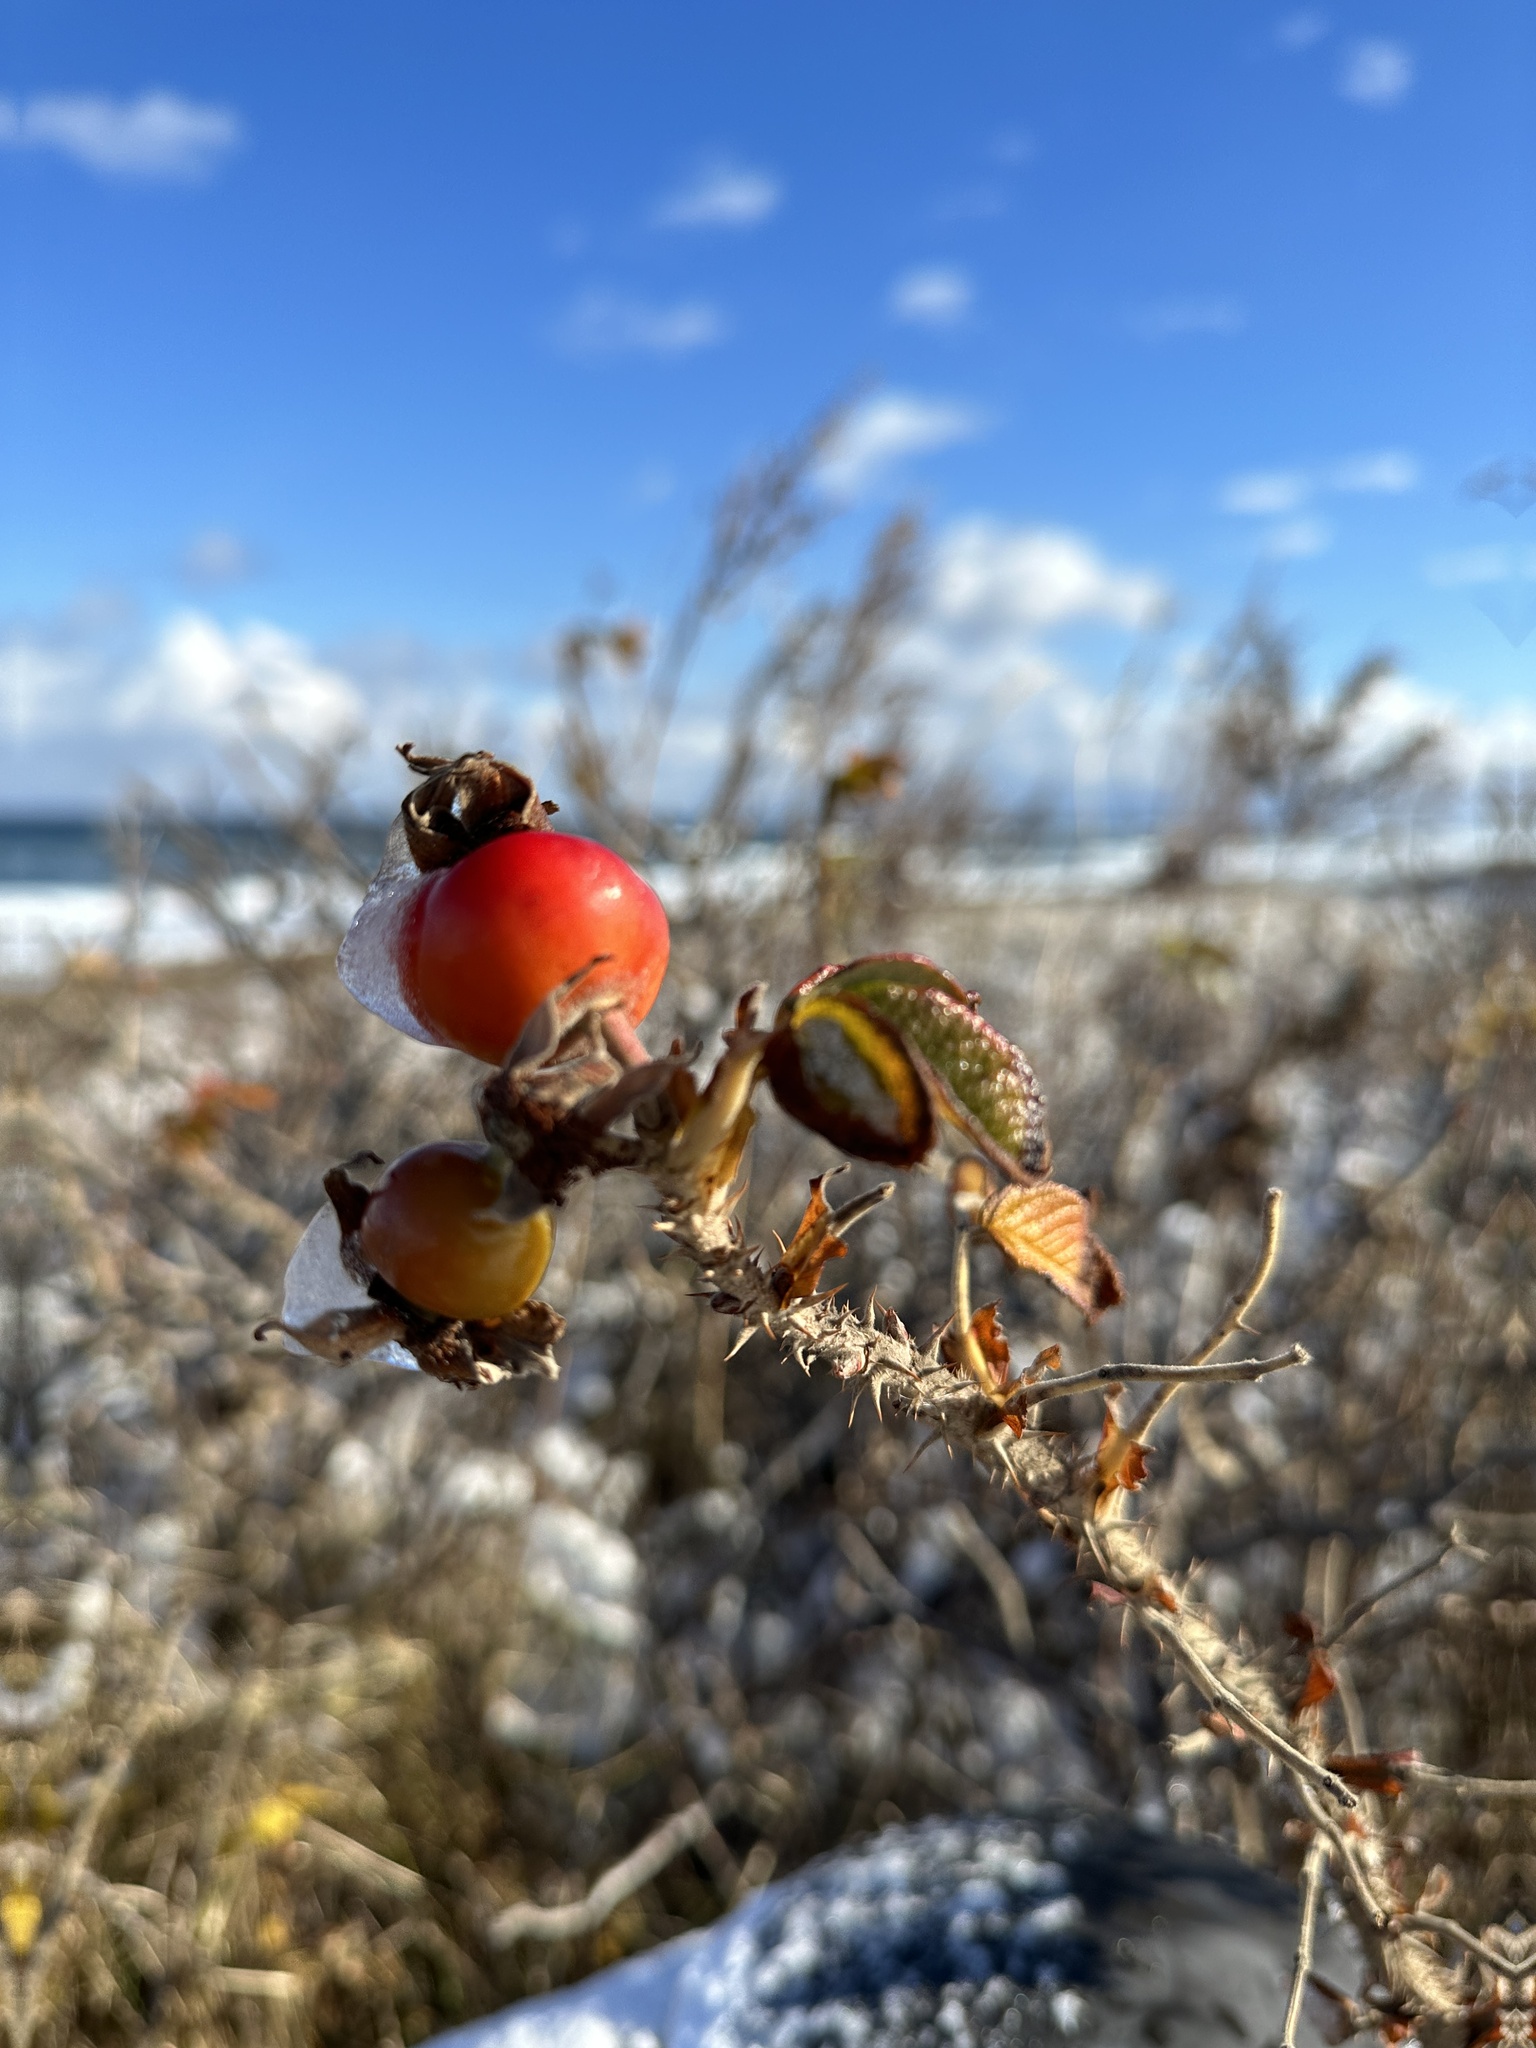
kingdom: Plantae
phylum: Tracheophyta
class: Magnoliopsida
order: Rosales
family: Rosaceae
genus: Rosa
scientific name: Rosa rugosa
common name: Japanese rose
